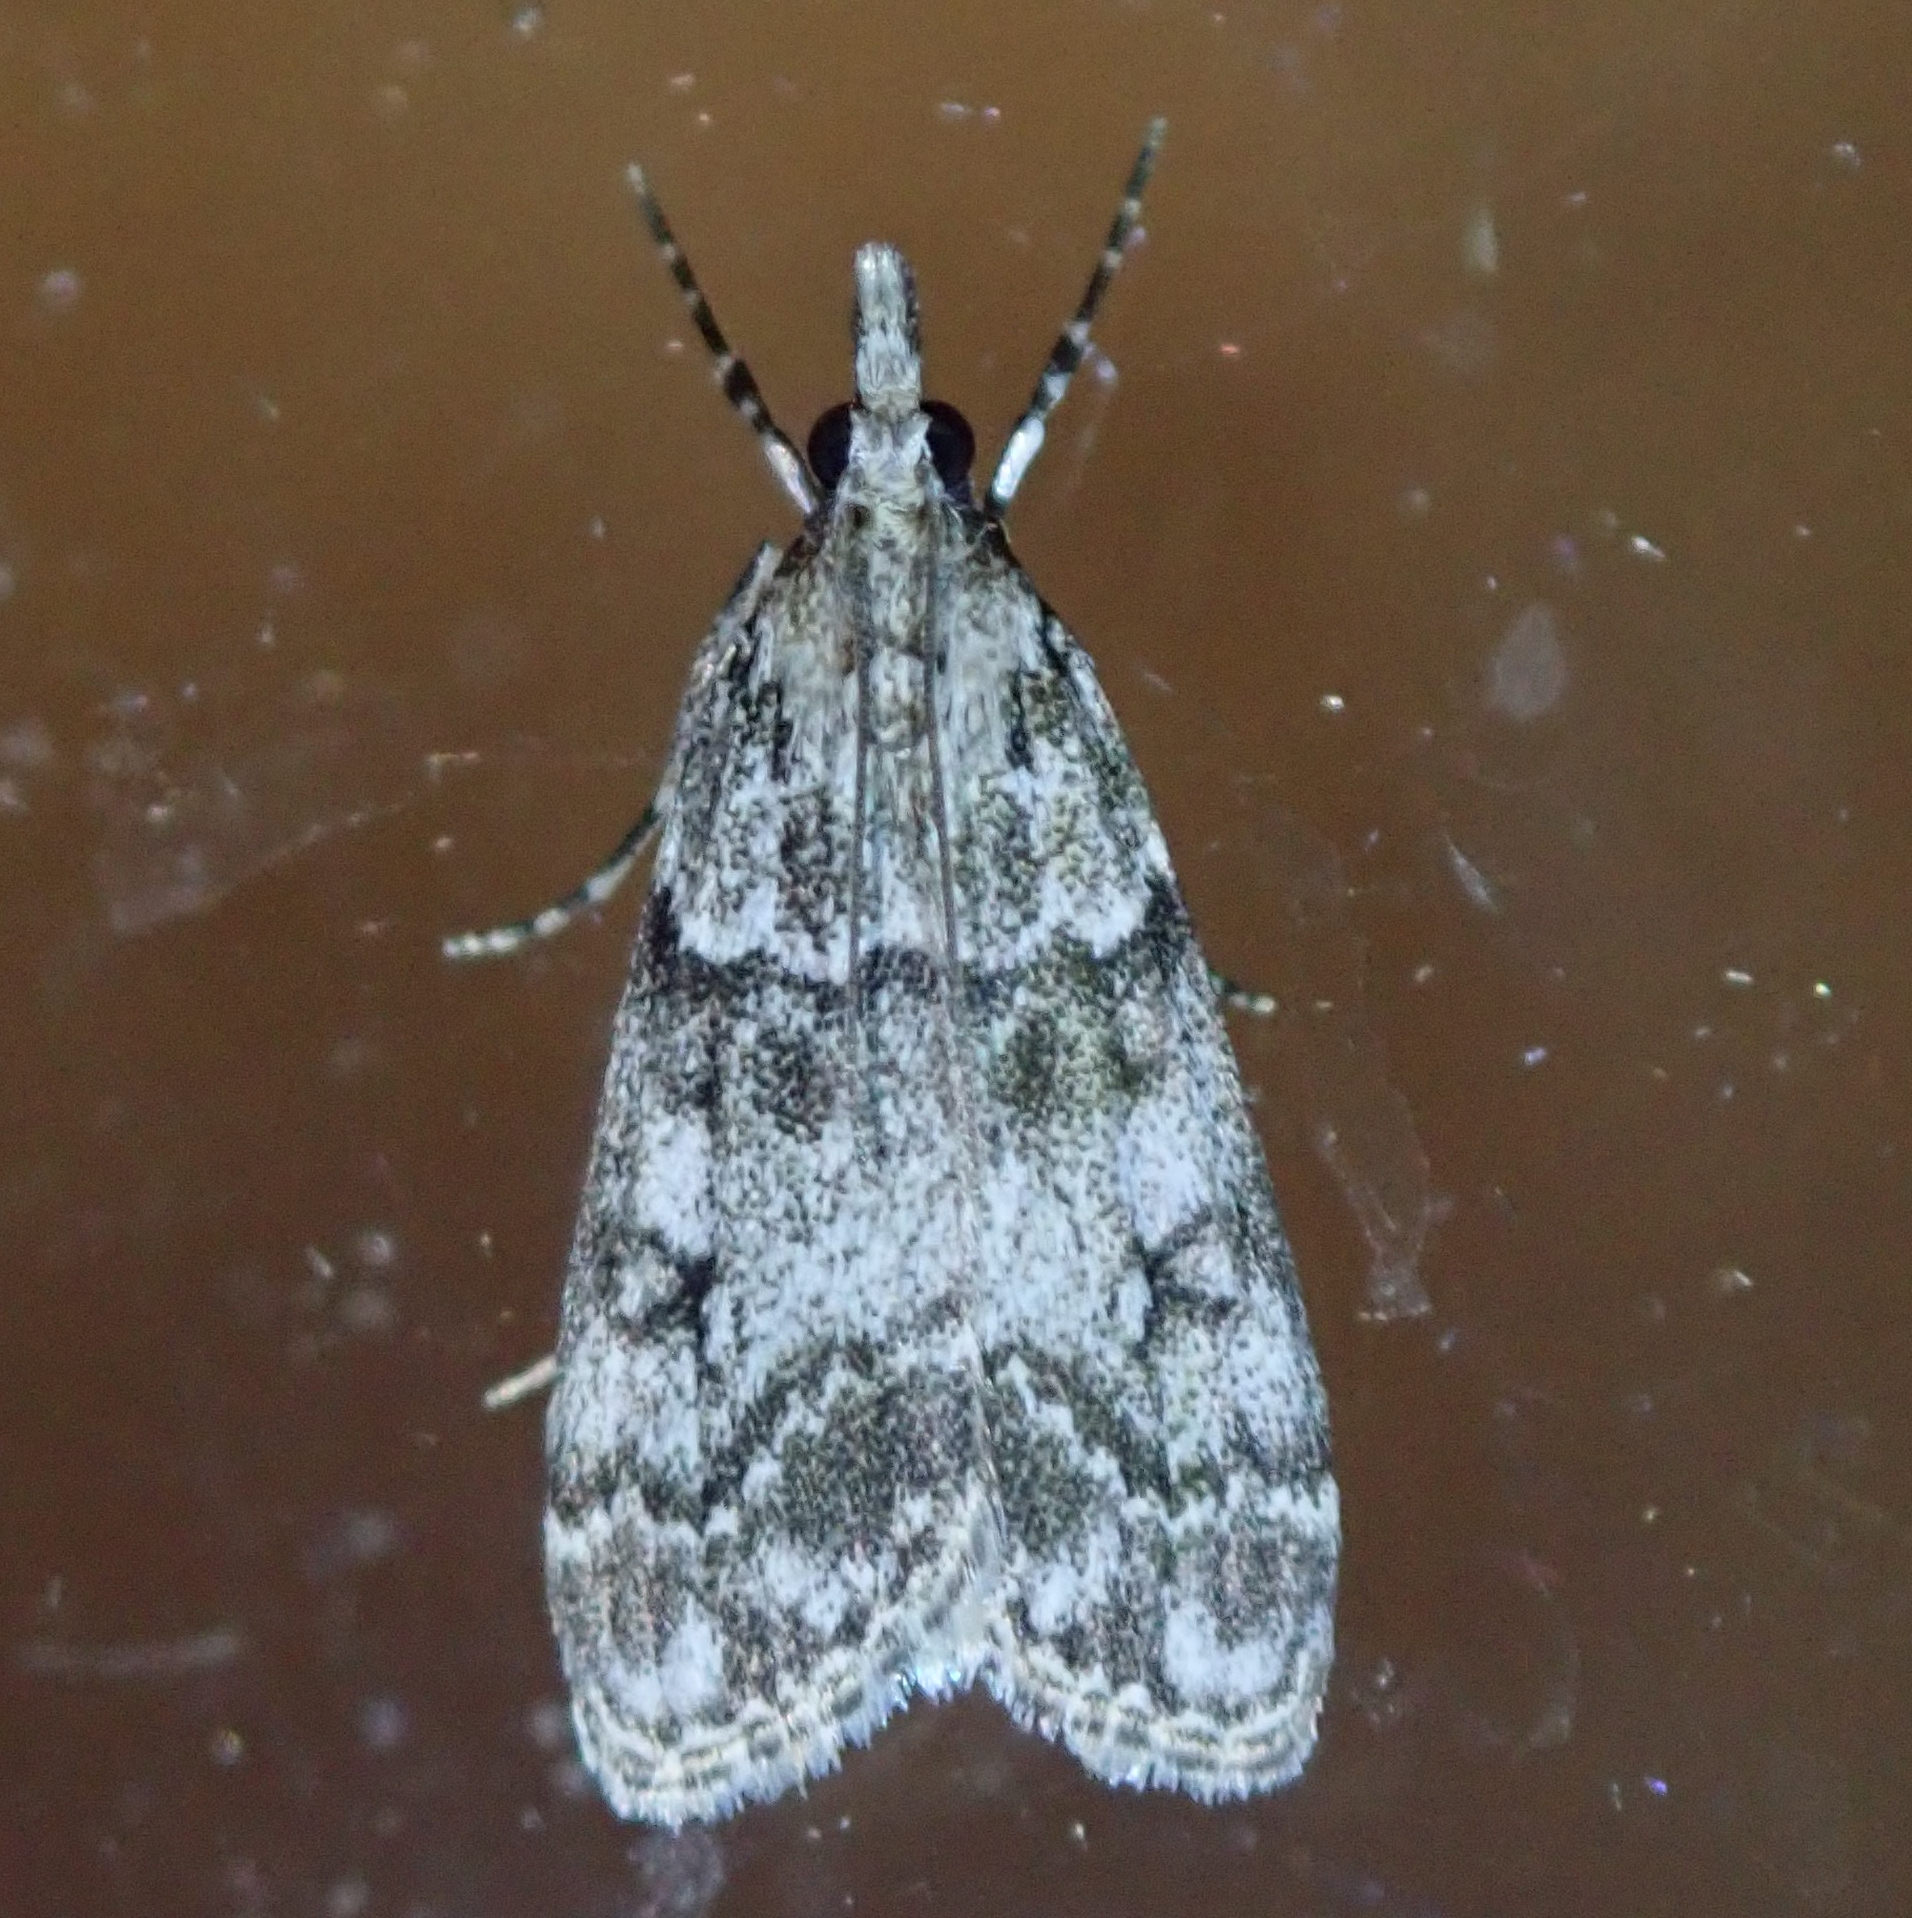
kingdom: Animalia
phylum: Arthropoda
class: Insecta
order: Lepidoptera
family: Crambidae
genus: Eudonia
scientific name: Eudonia lacustrata
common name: Little grey
